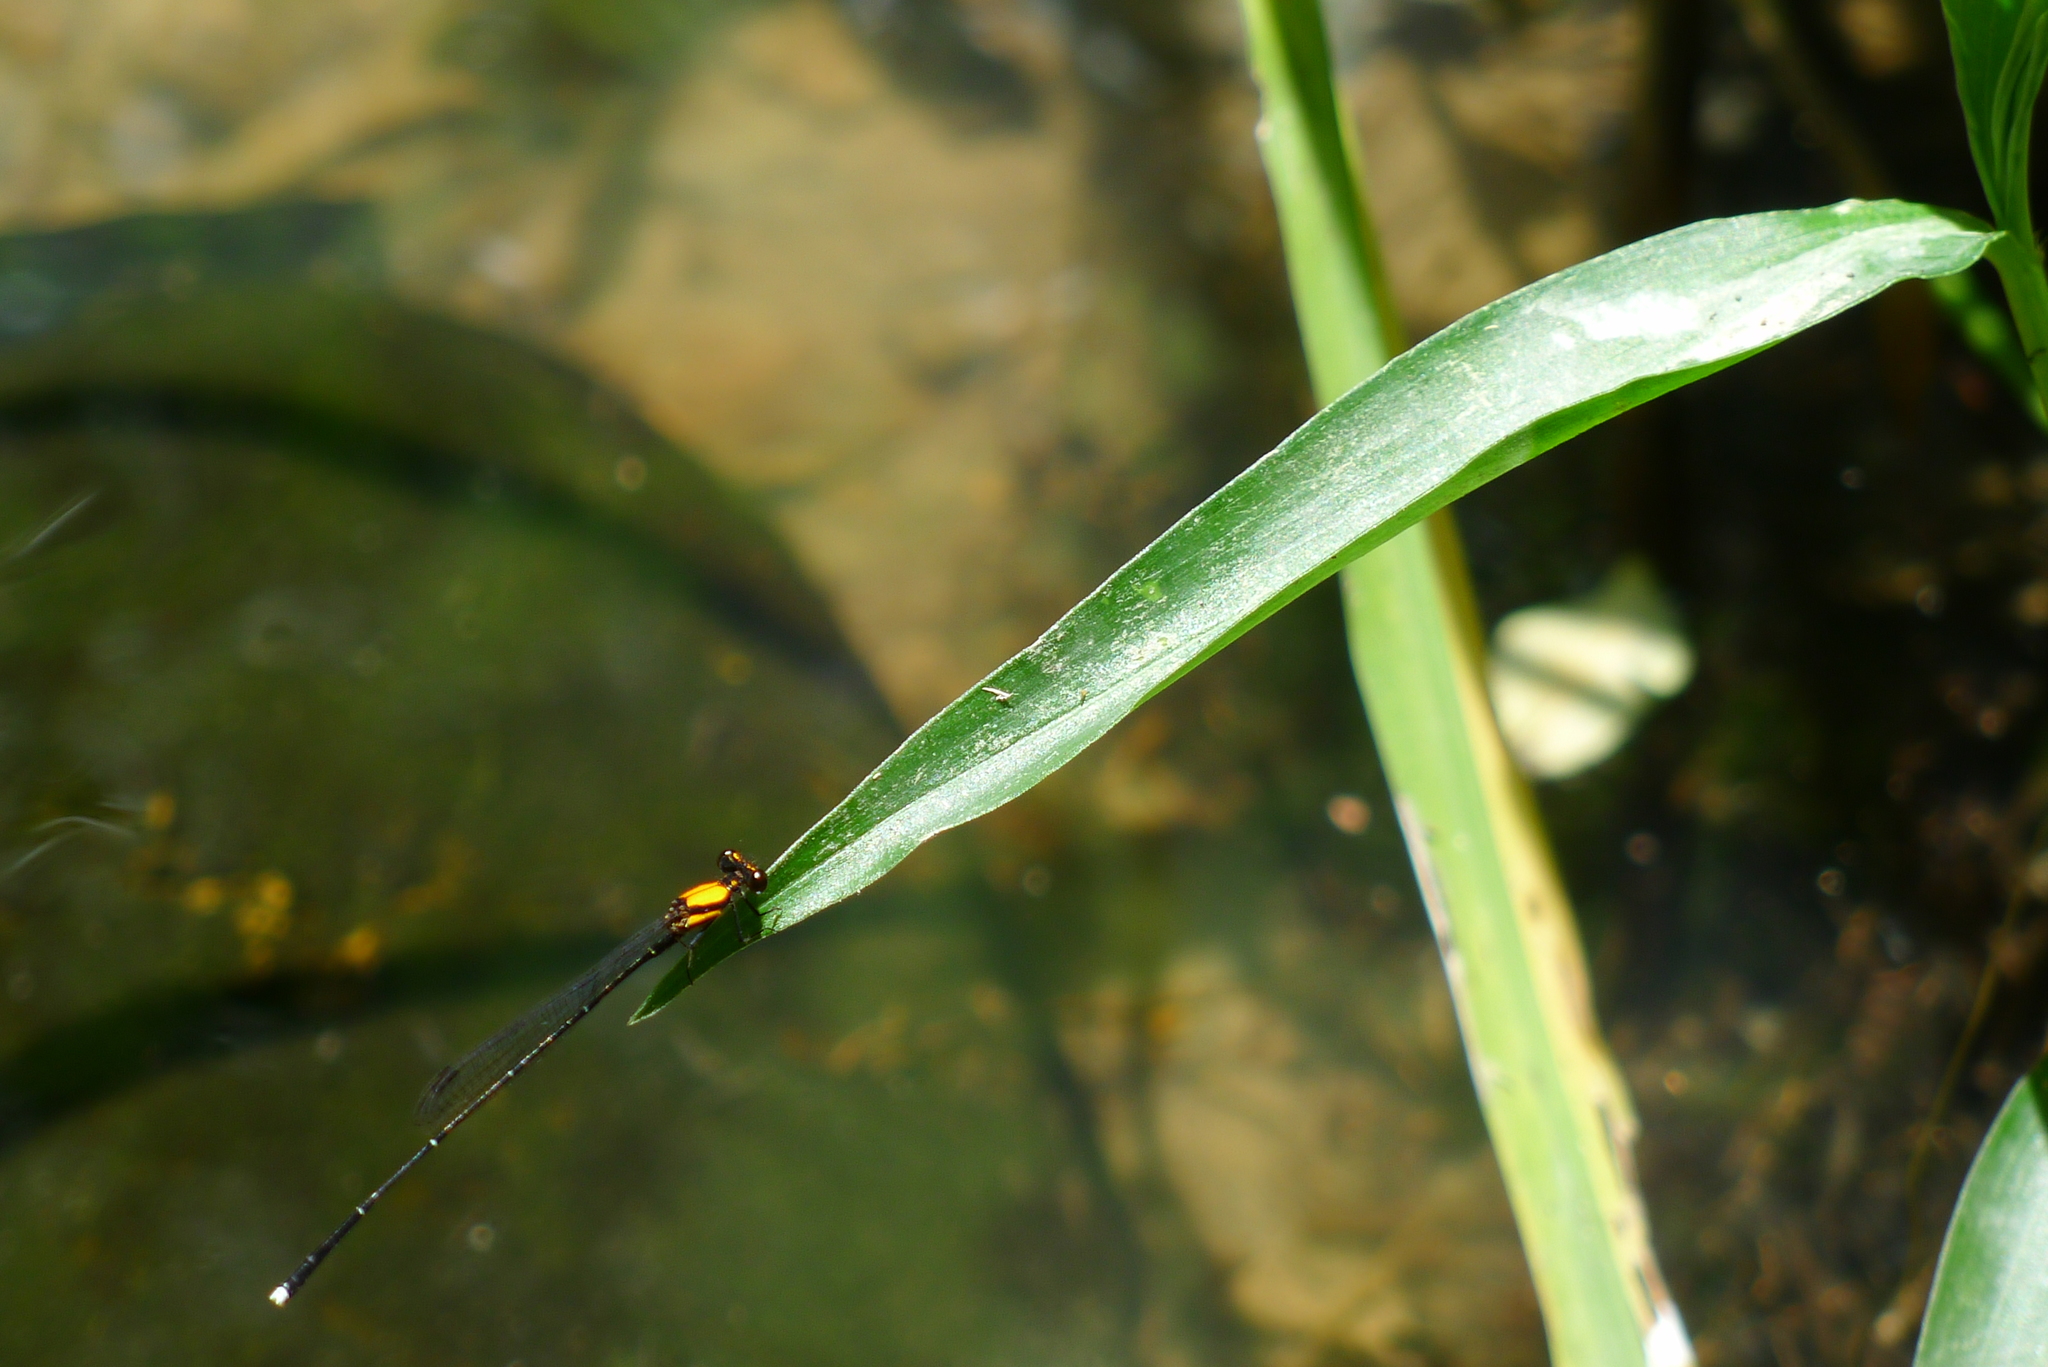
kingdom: Animalia
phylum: Arthropoda
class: Insecta
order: Odonata
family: Platycnemididae
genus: Prodasineura
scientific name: Prodasineura croconota
